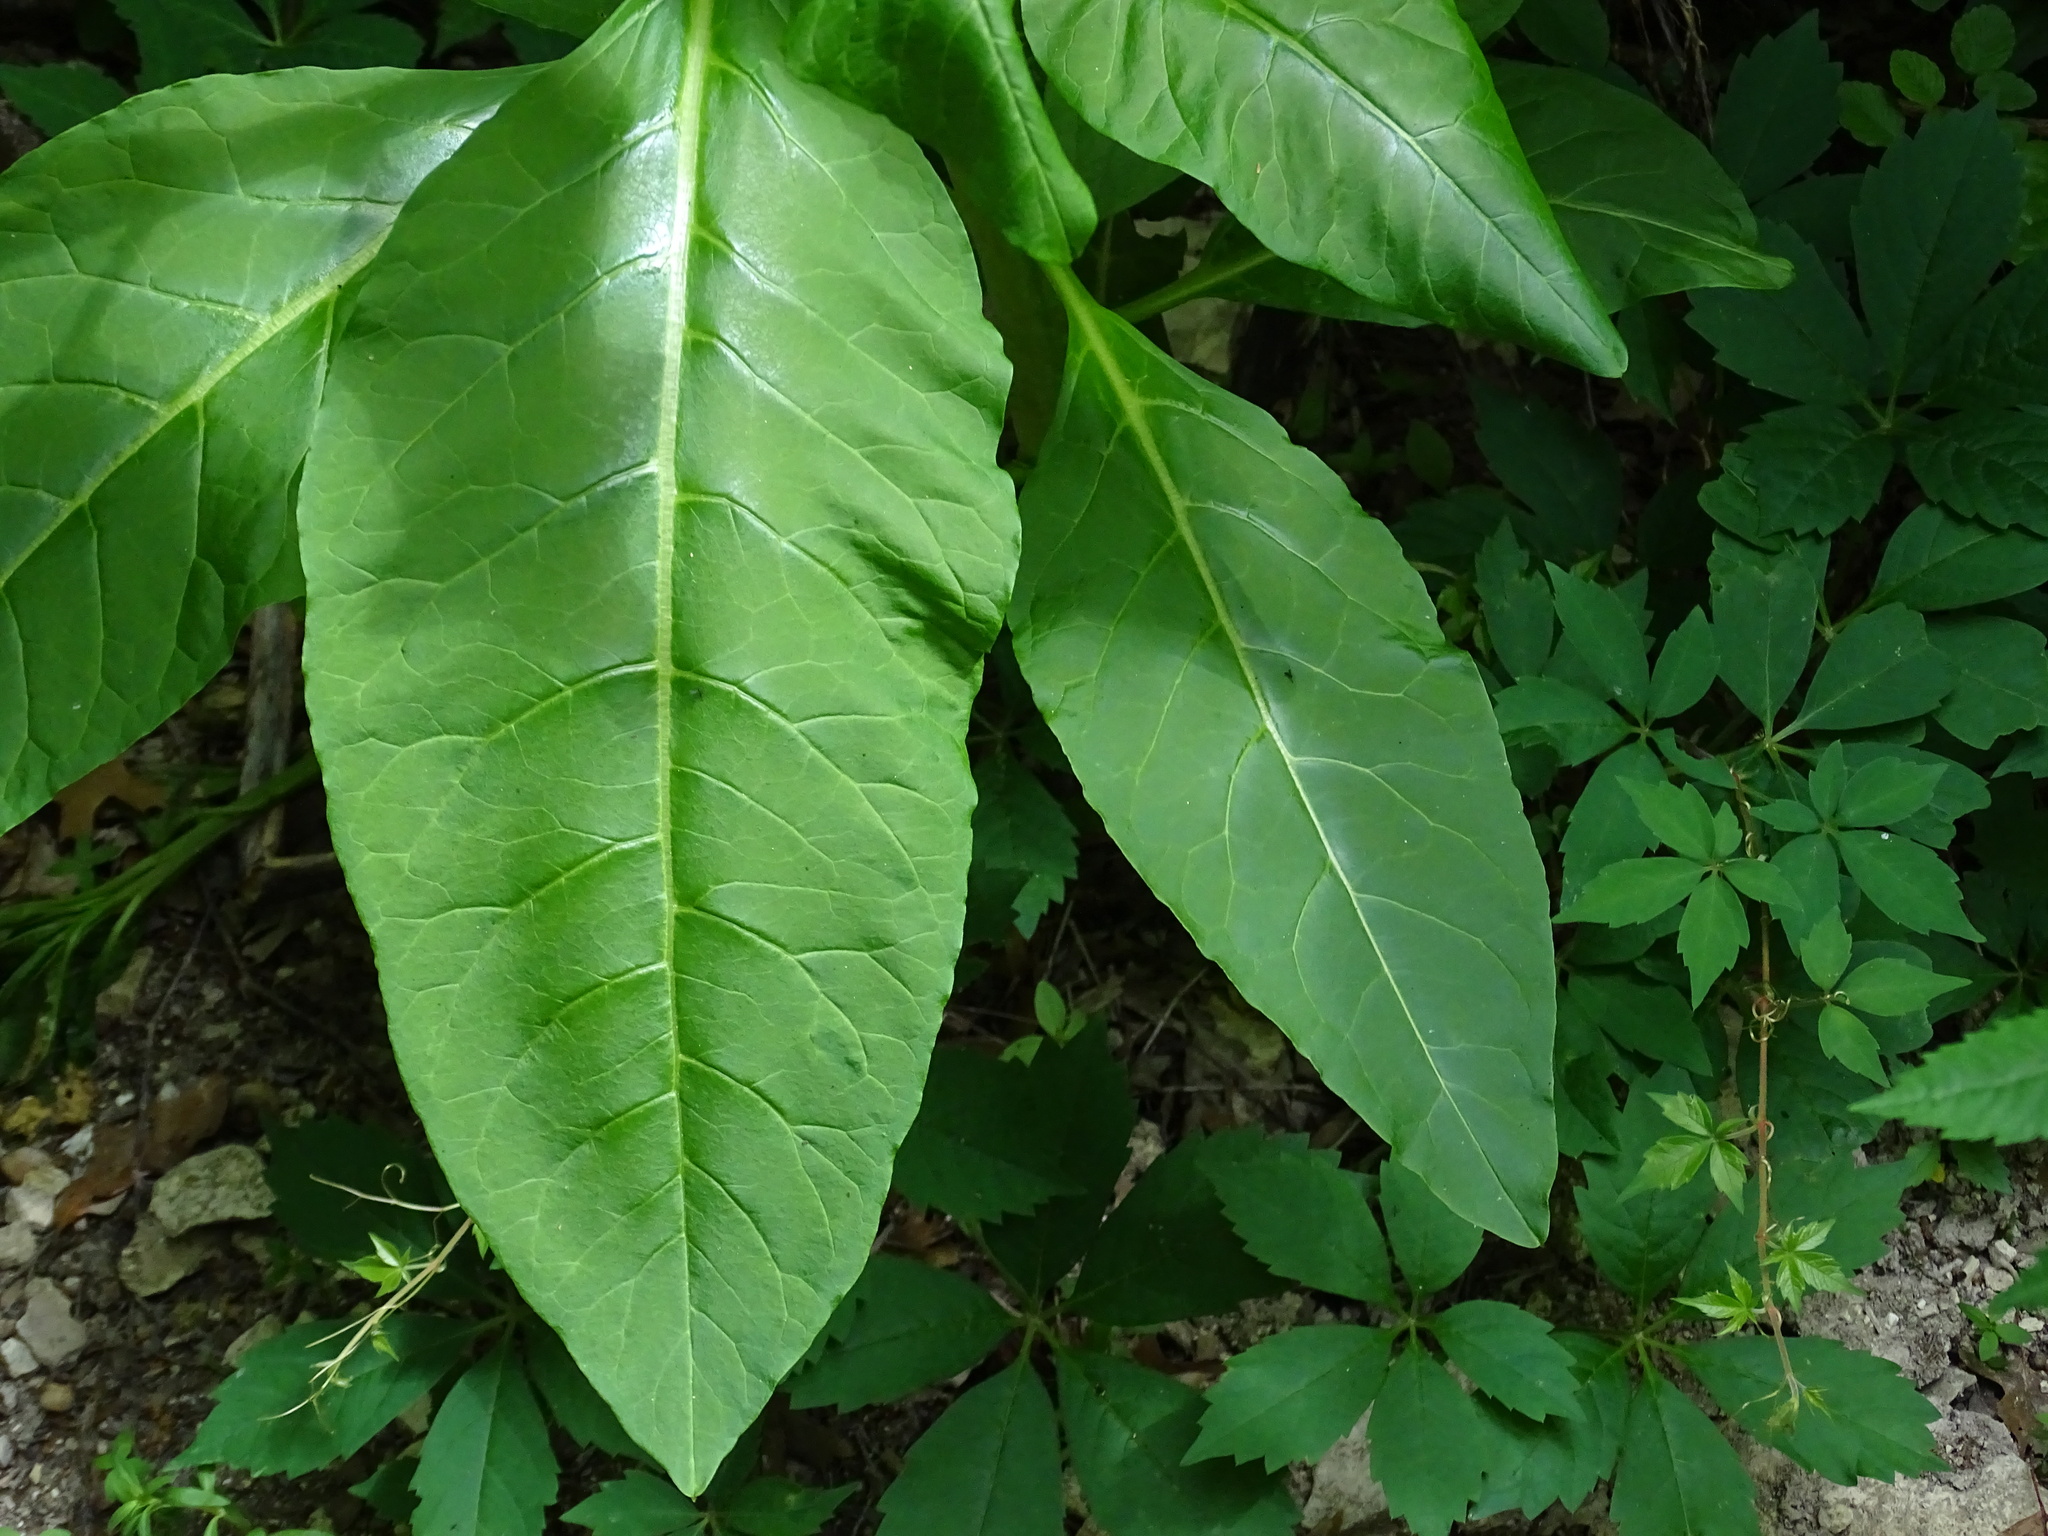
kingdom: Plantae
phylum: Tracheophyta
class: Magnoliopsida
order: Caryophyllales
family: Phytolaccaceae
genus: Phytolacca
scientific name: Phytolacca americana
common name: American pokeweed
